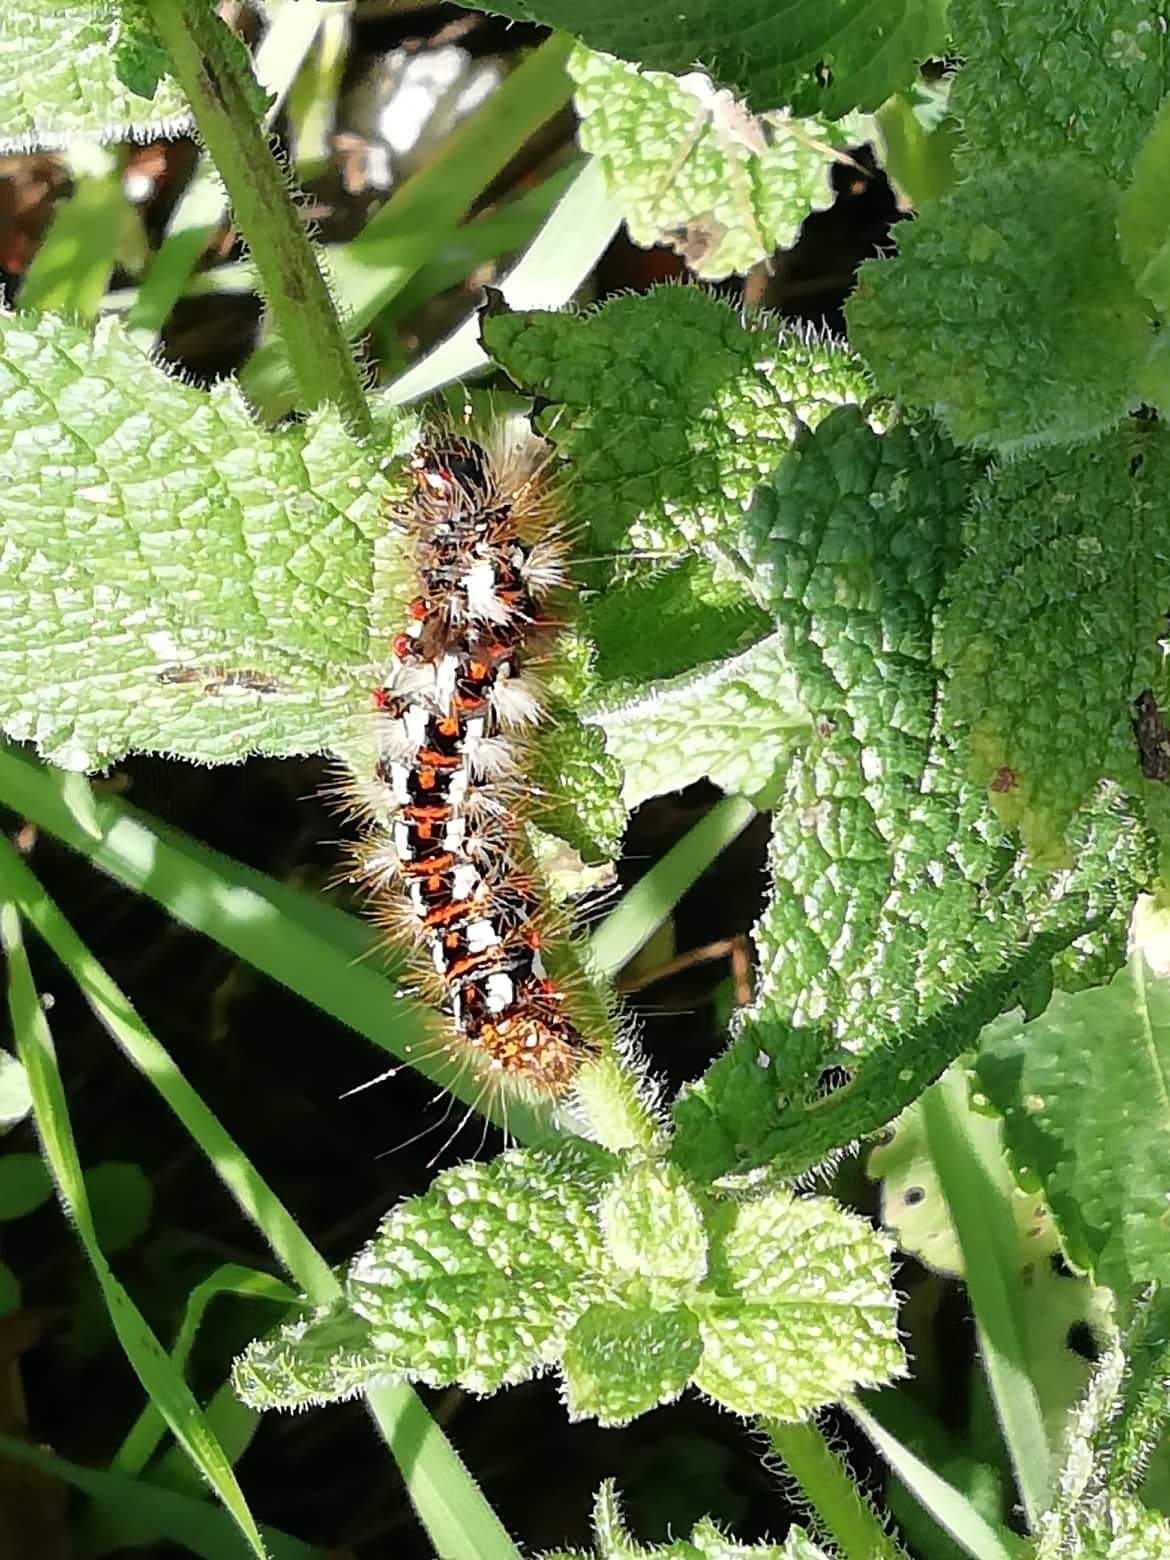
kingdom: Animalia
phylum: Arthropoda
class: Insecta
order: Lepidoptera
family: Noctuidae
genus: Acronicta
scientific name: Acronicta rumicis
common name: Knot grass
